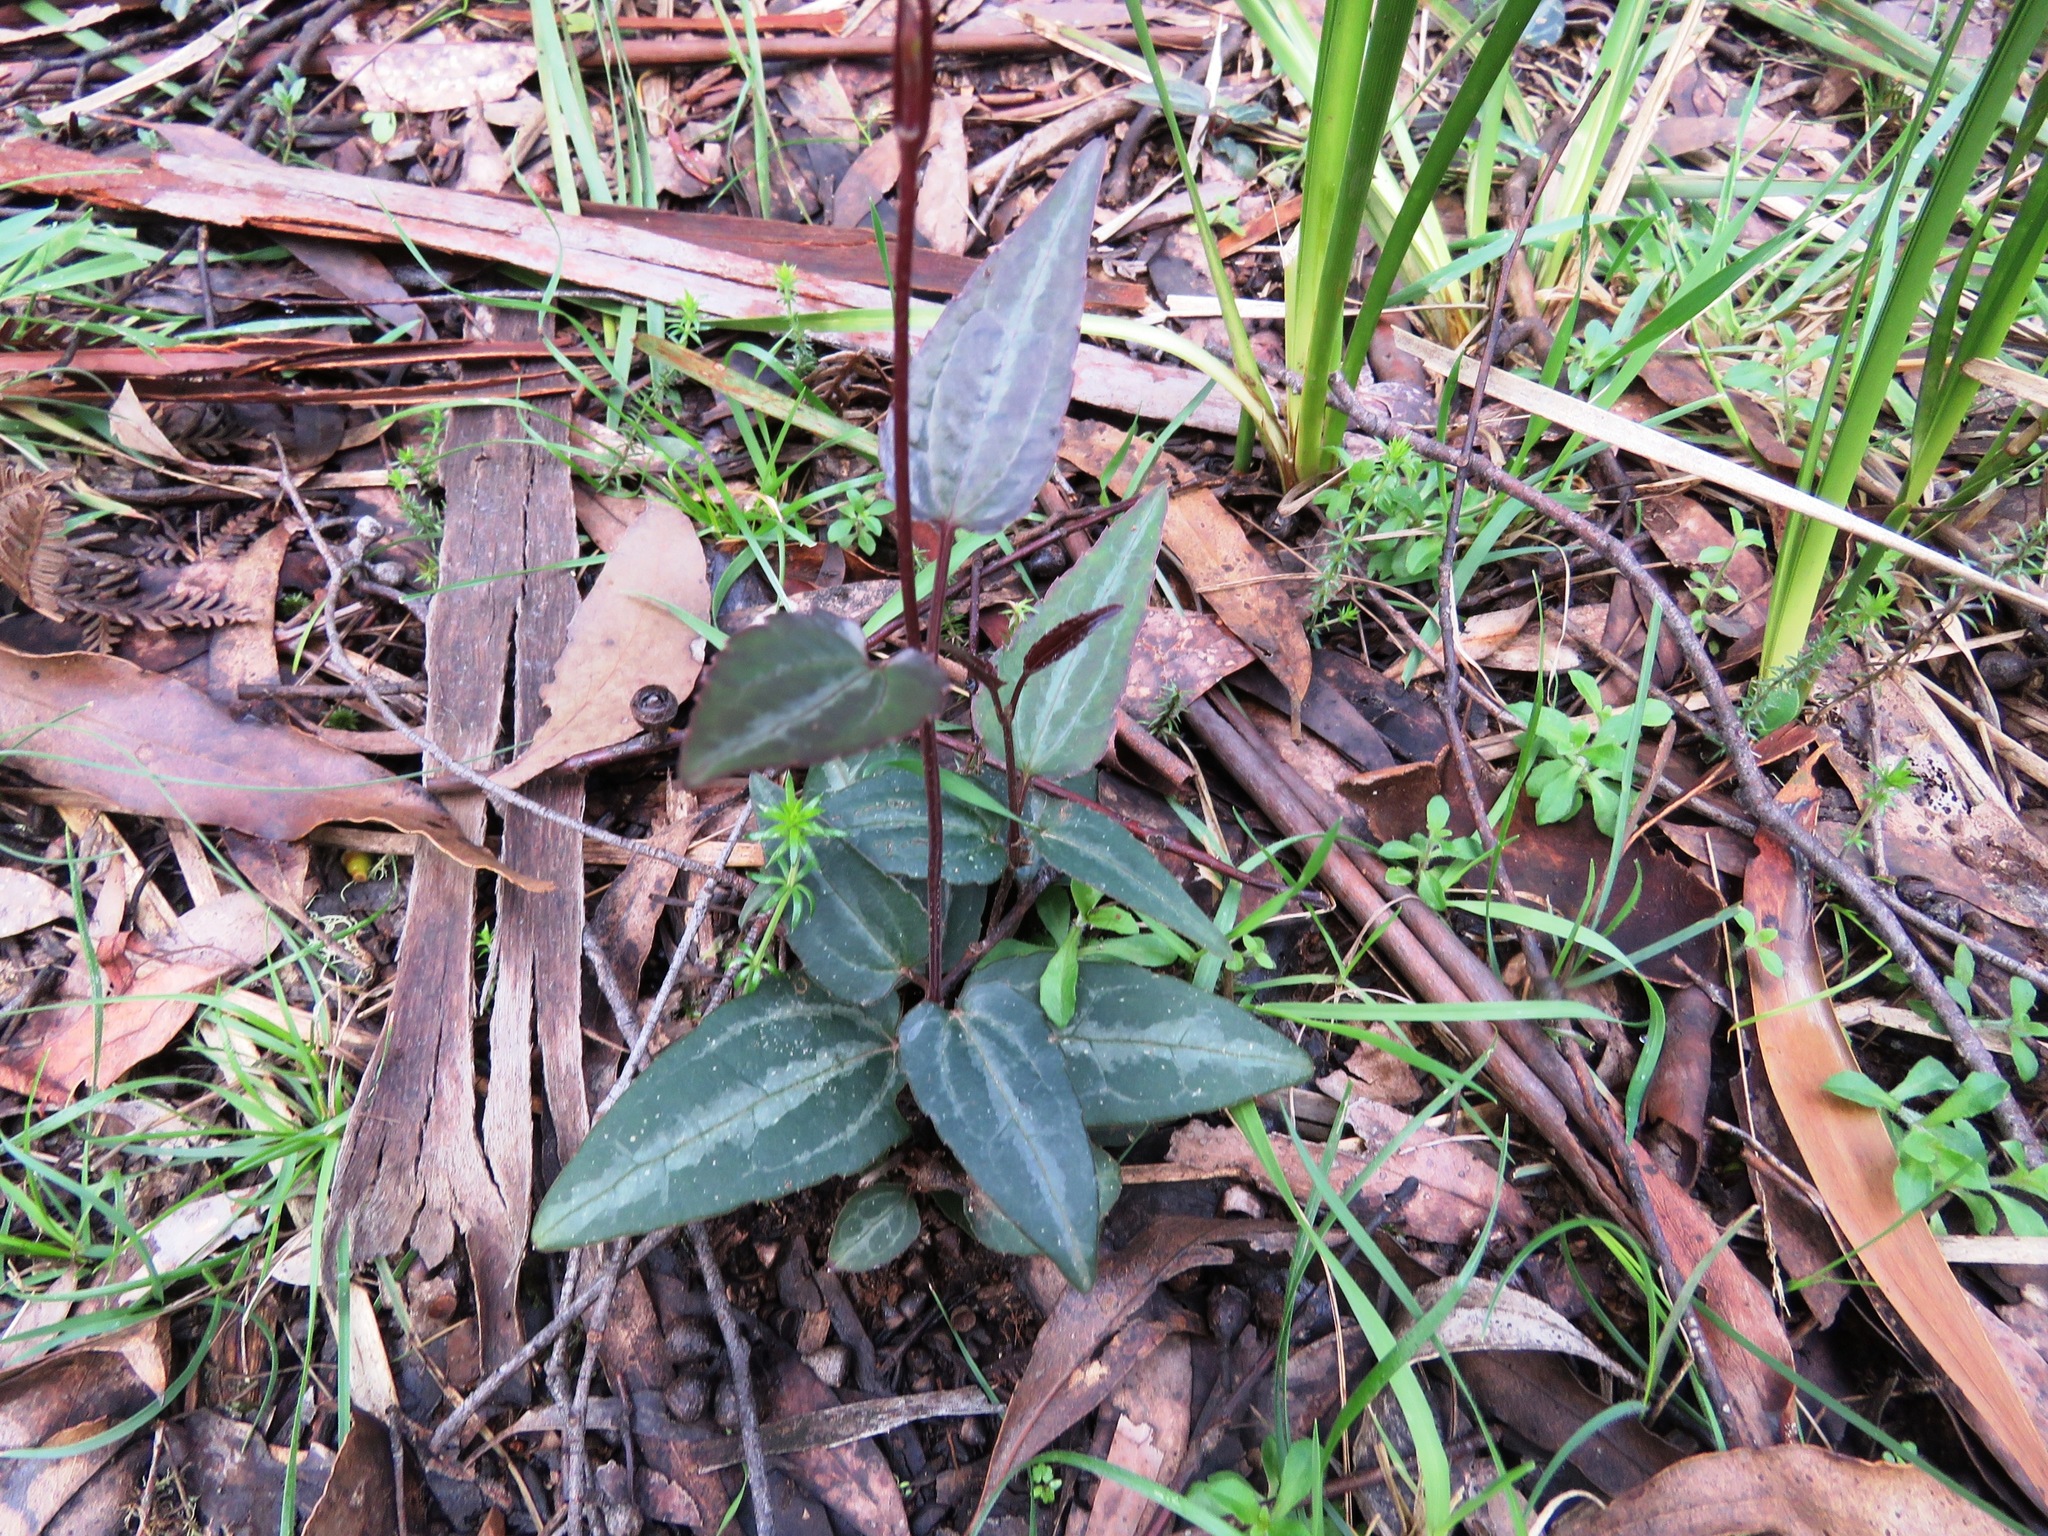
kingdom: Plantae
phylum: Tracheophyta
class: Magnoliopsida
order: Ranunculales
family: Ranunculaceae
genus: Clematis
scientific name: Clematis aristata
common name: Mountain clematis
